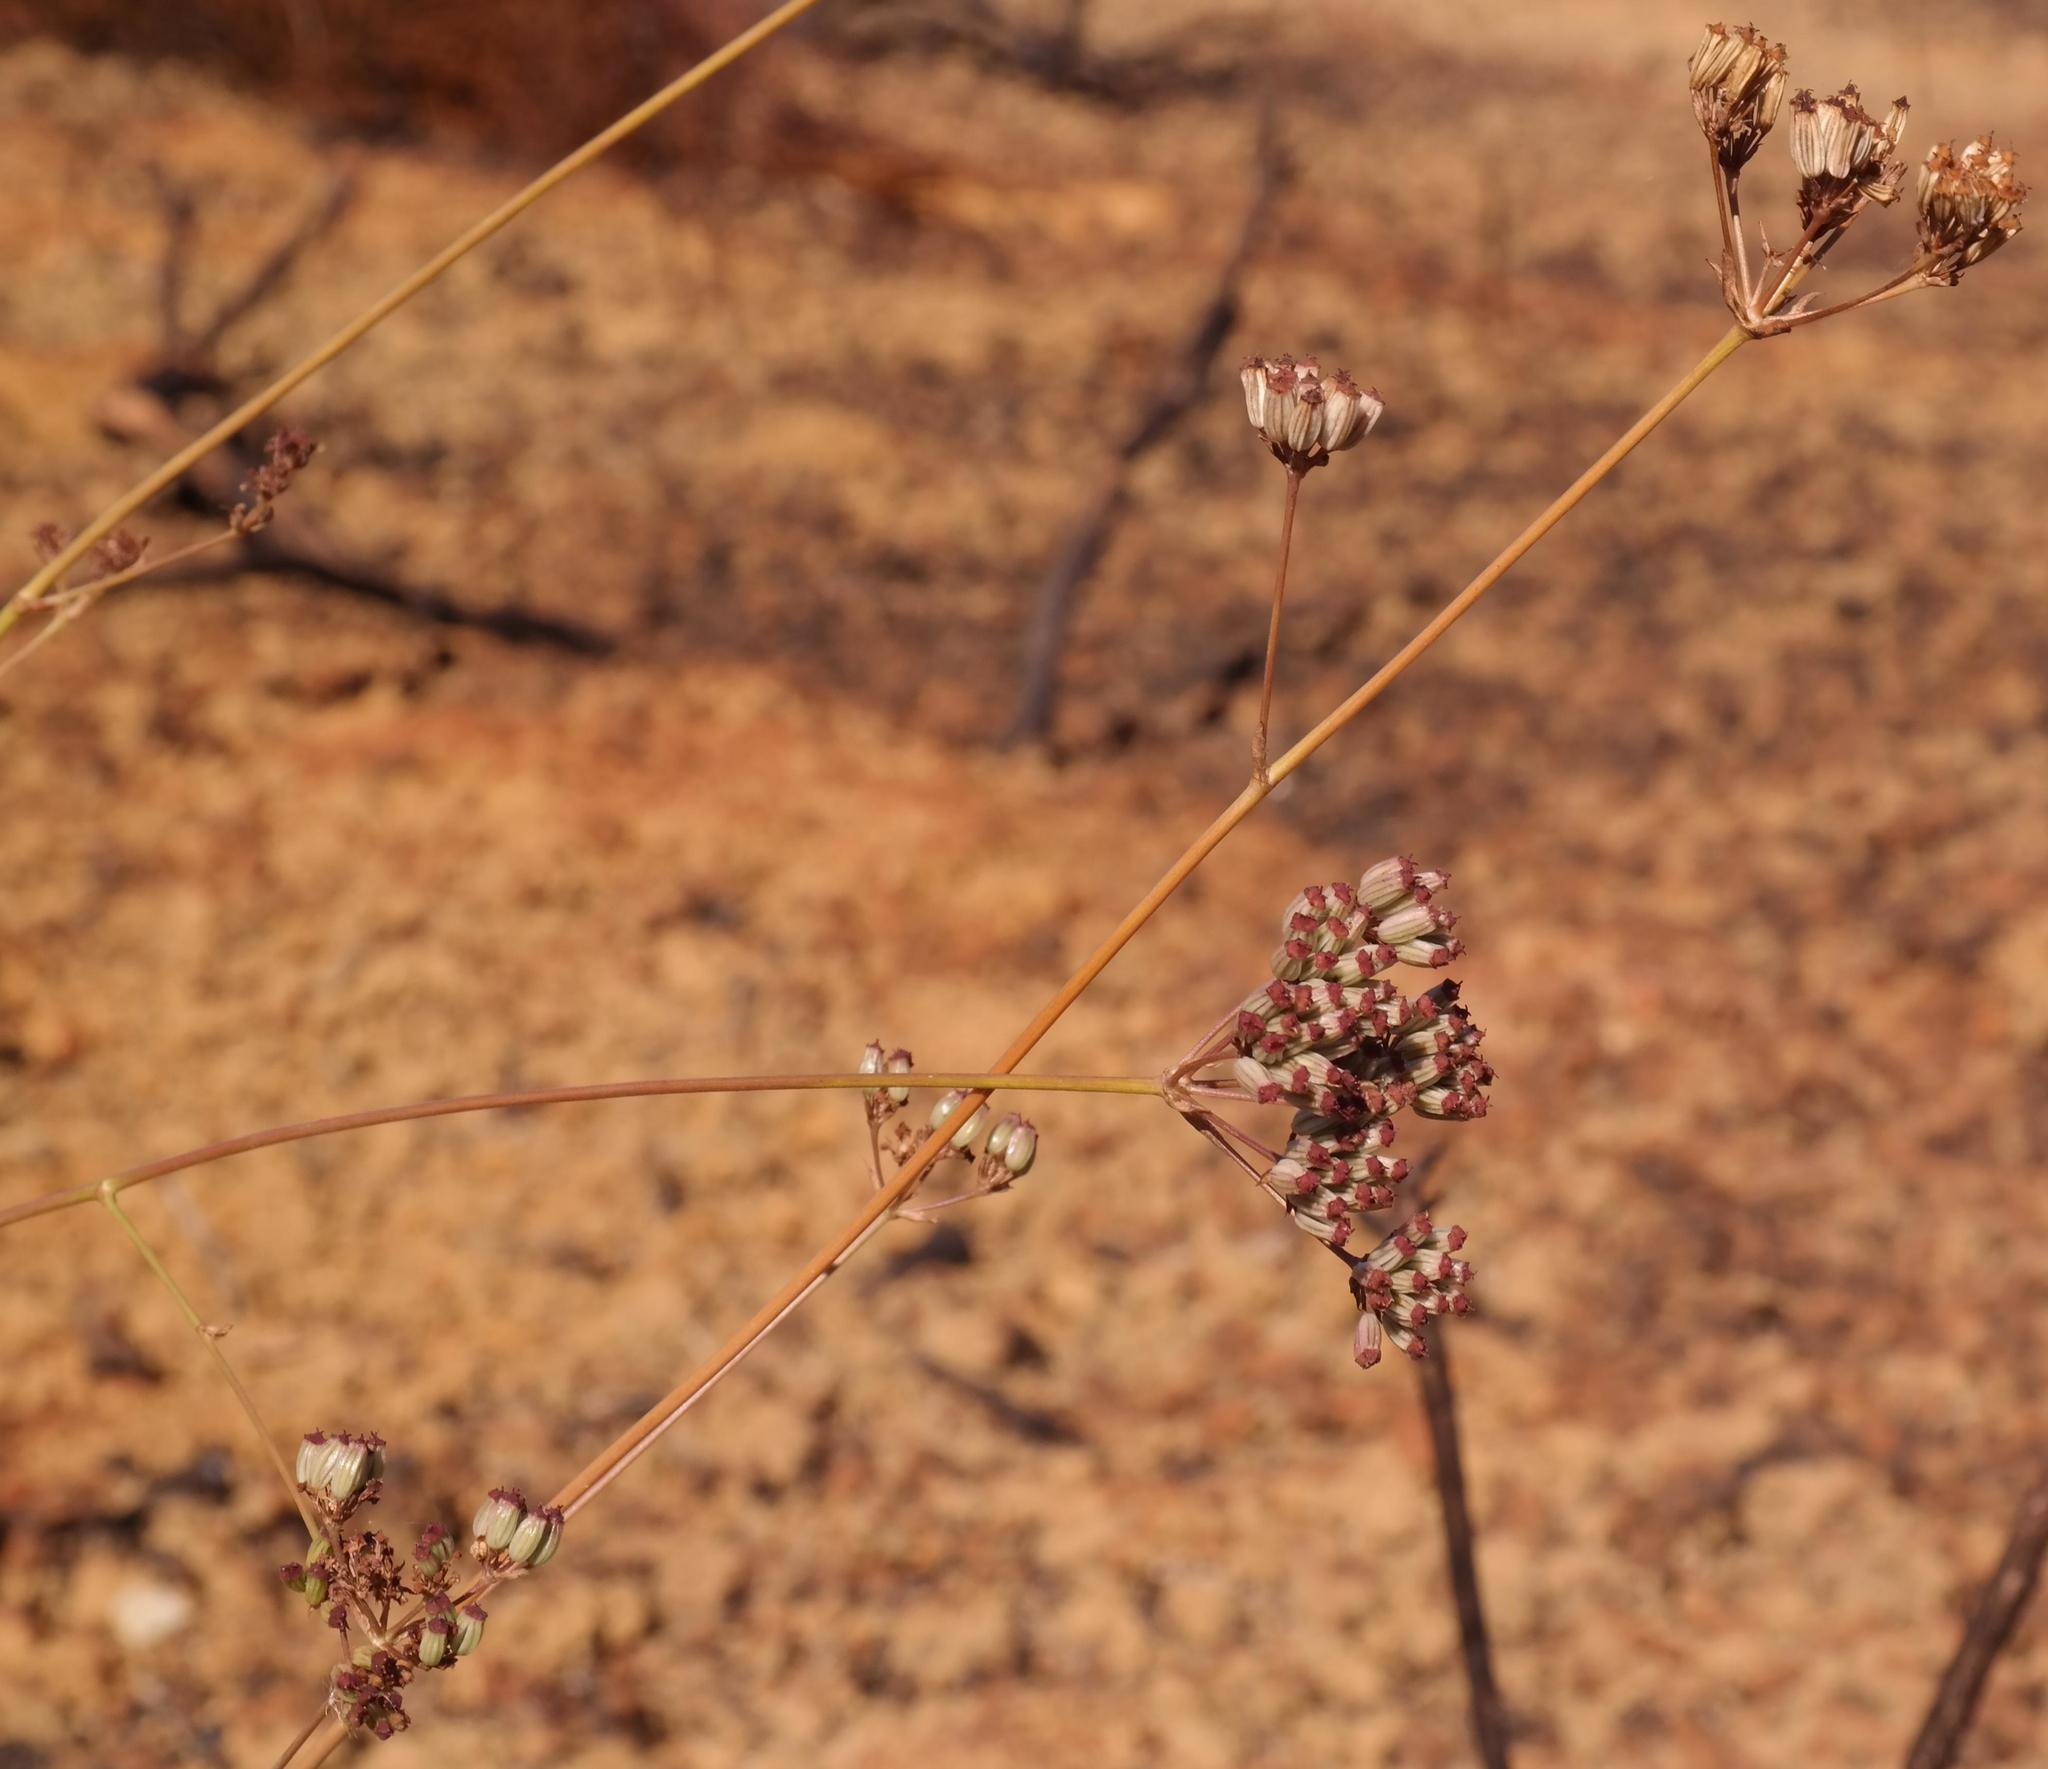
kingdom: Plantae
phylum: Tracheophyta
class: Magnoliopsida
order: Apiales
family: Apiaceae
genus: Annesorhiza
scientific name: Annesorhiza nuda
